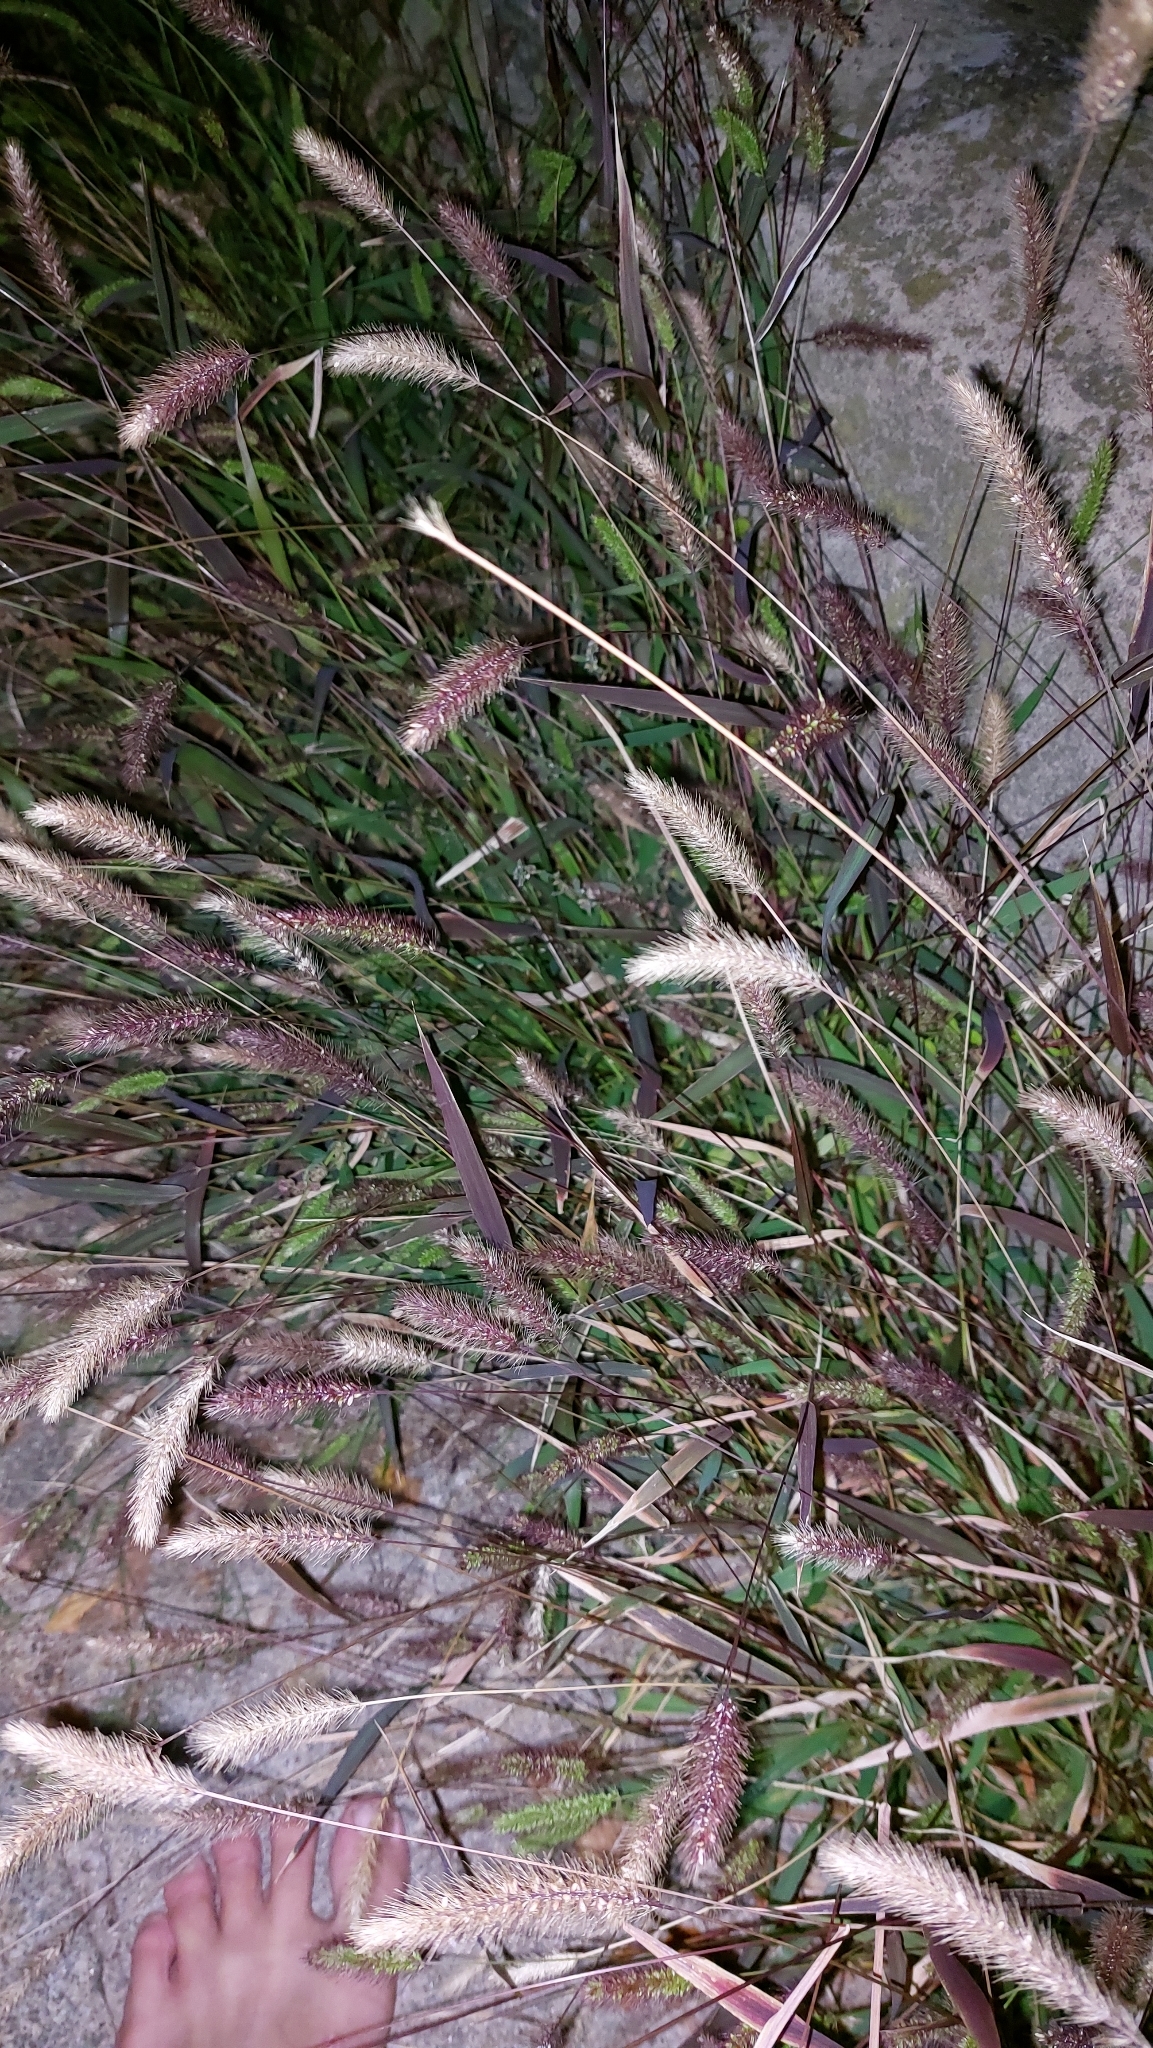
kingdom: Plantae
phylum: Tracheophyta
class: Liliopsida
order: Poales
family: Poaceae
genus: Setaria
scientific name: Setaria viridis
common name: Green bristlegrass
